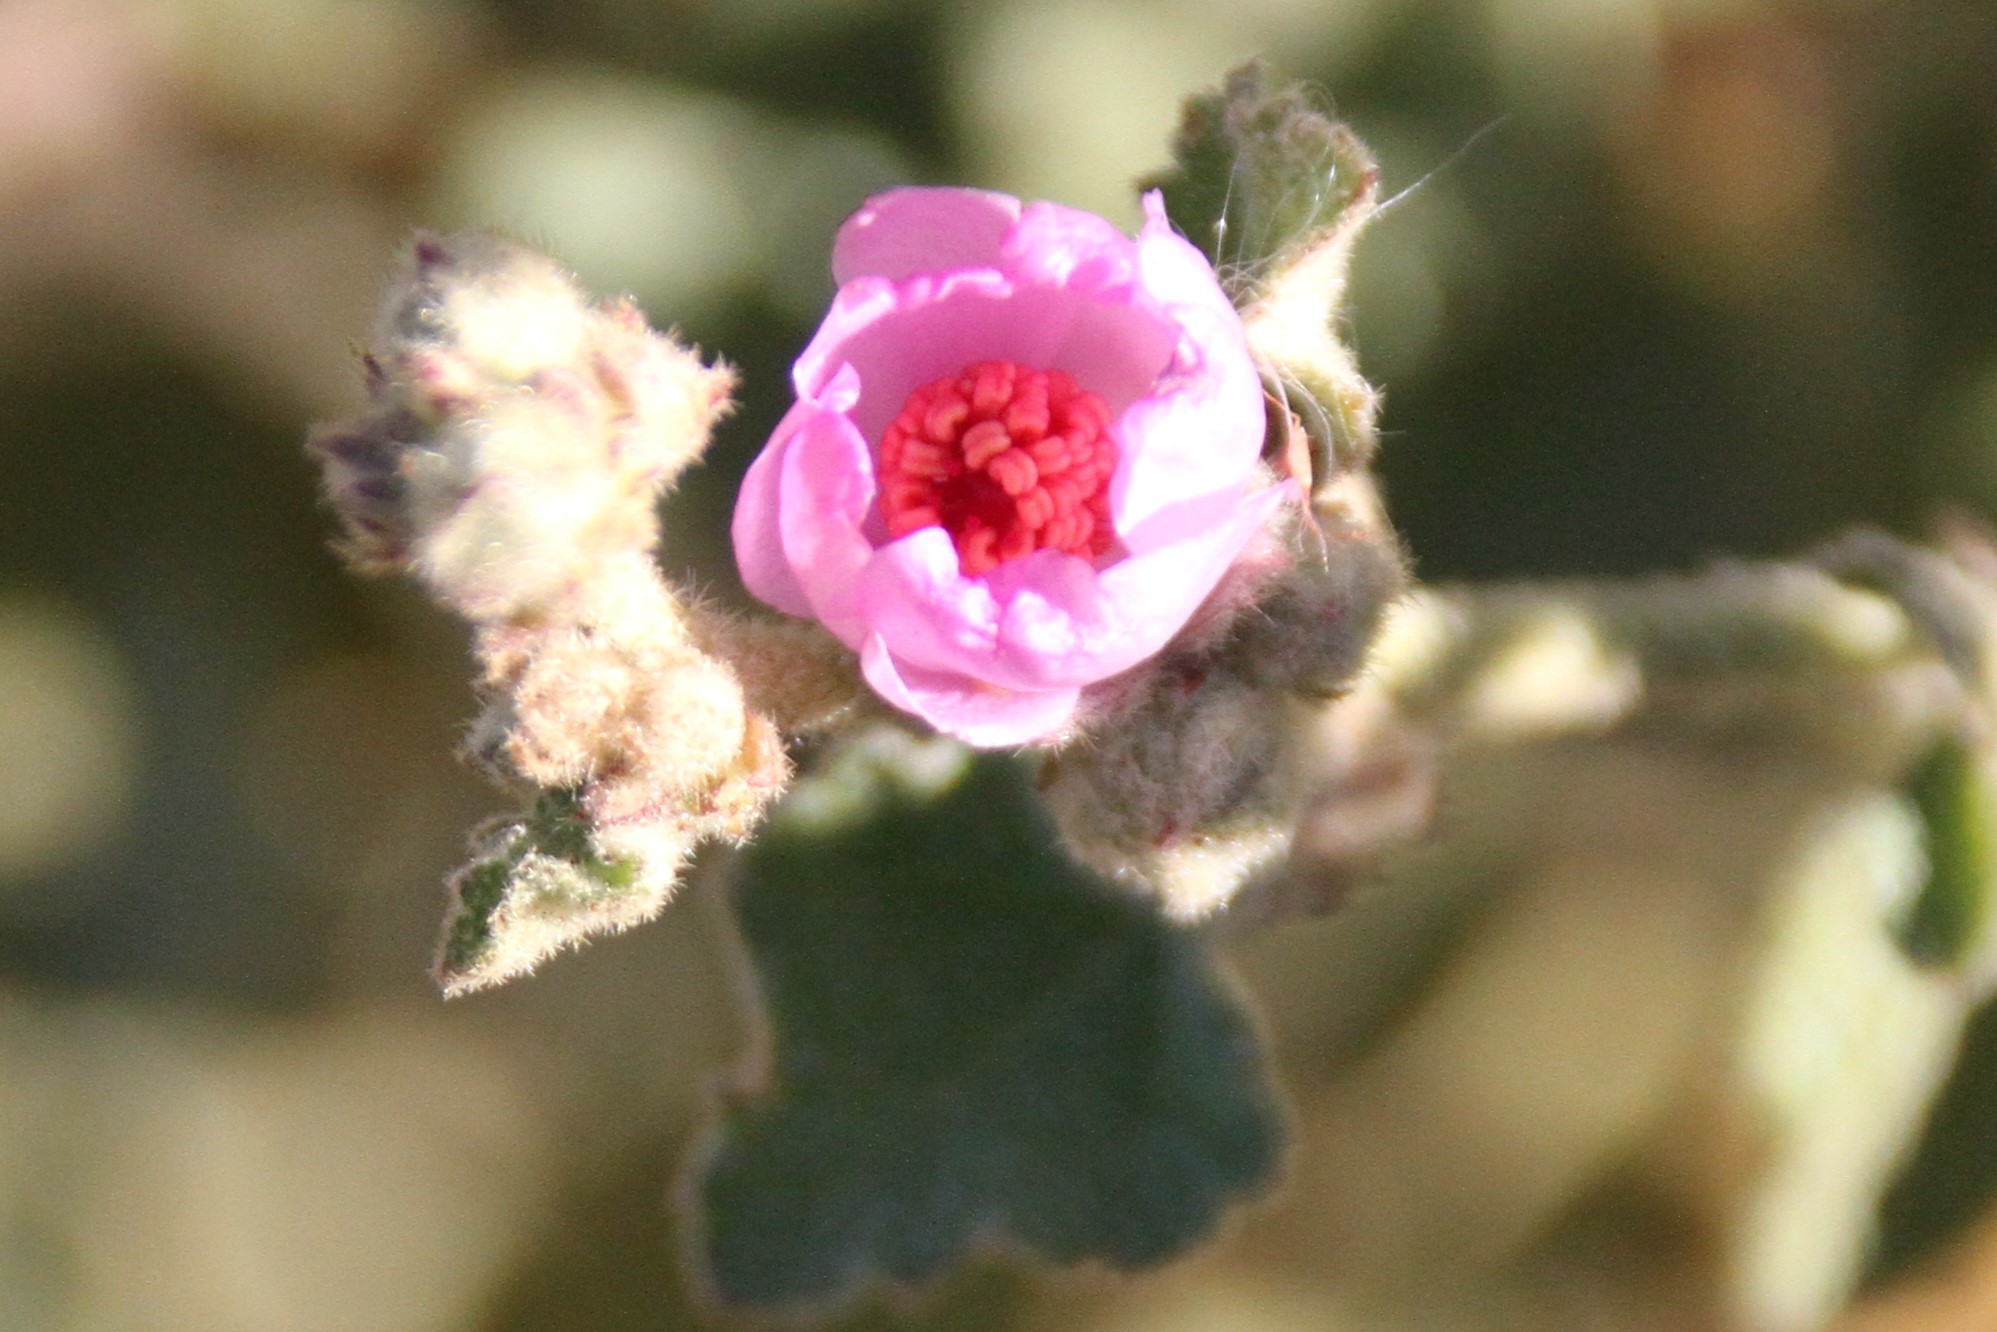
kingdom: Plantae
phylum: Tracheophyta
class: Magnoliopsida
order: Malvales
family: Malvaceae
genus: Malacothamnus
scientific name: Malacothamnus fasciculatus
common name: Sant cruz island bush-mallow
